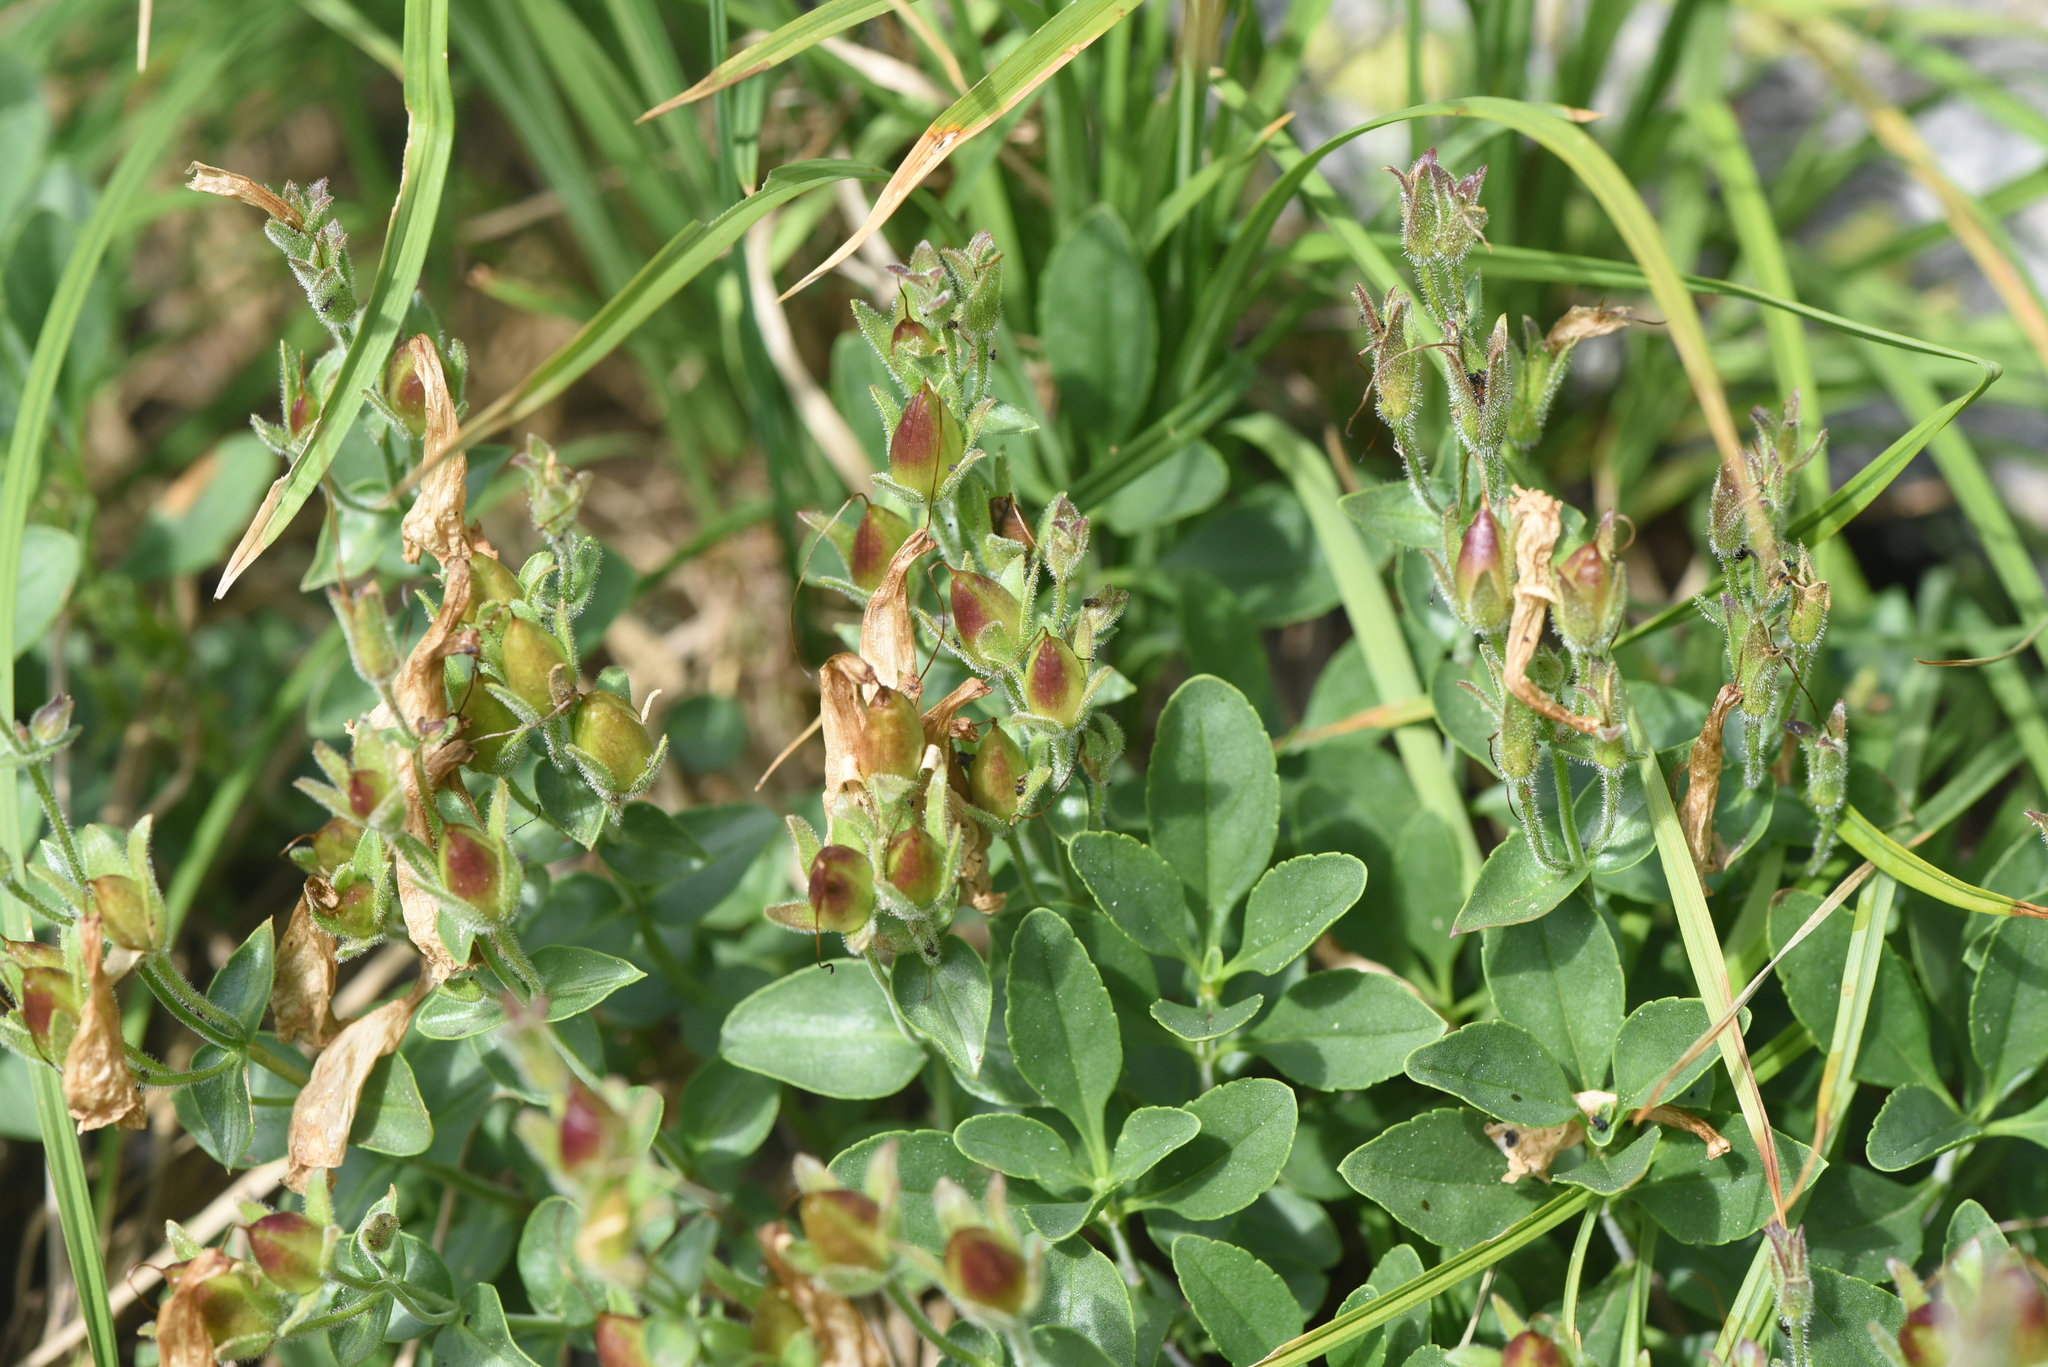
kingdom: Plantae
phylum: Tracheophyta
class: Magnoliopsida
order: Lamiales
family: Plantaginaceae
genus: Penstemon
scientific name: Penstemon ellipticus
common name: Alpine beardtongue
